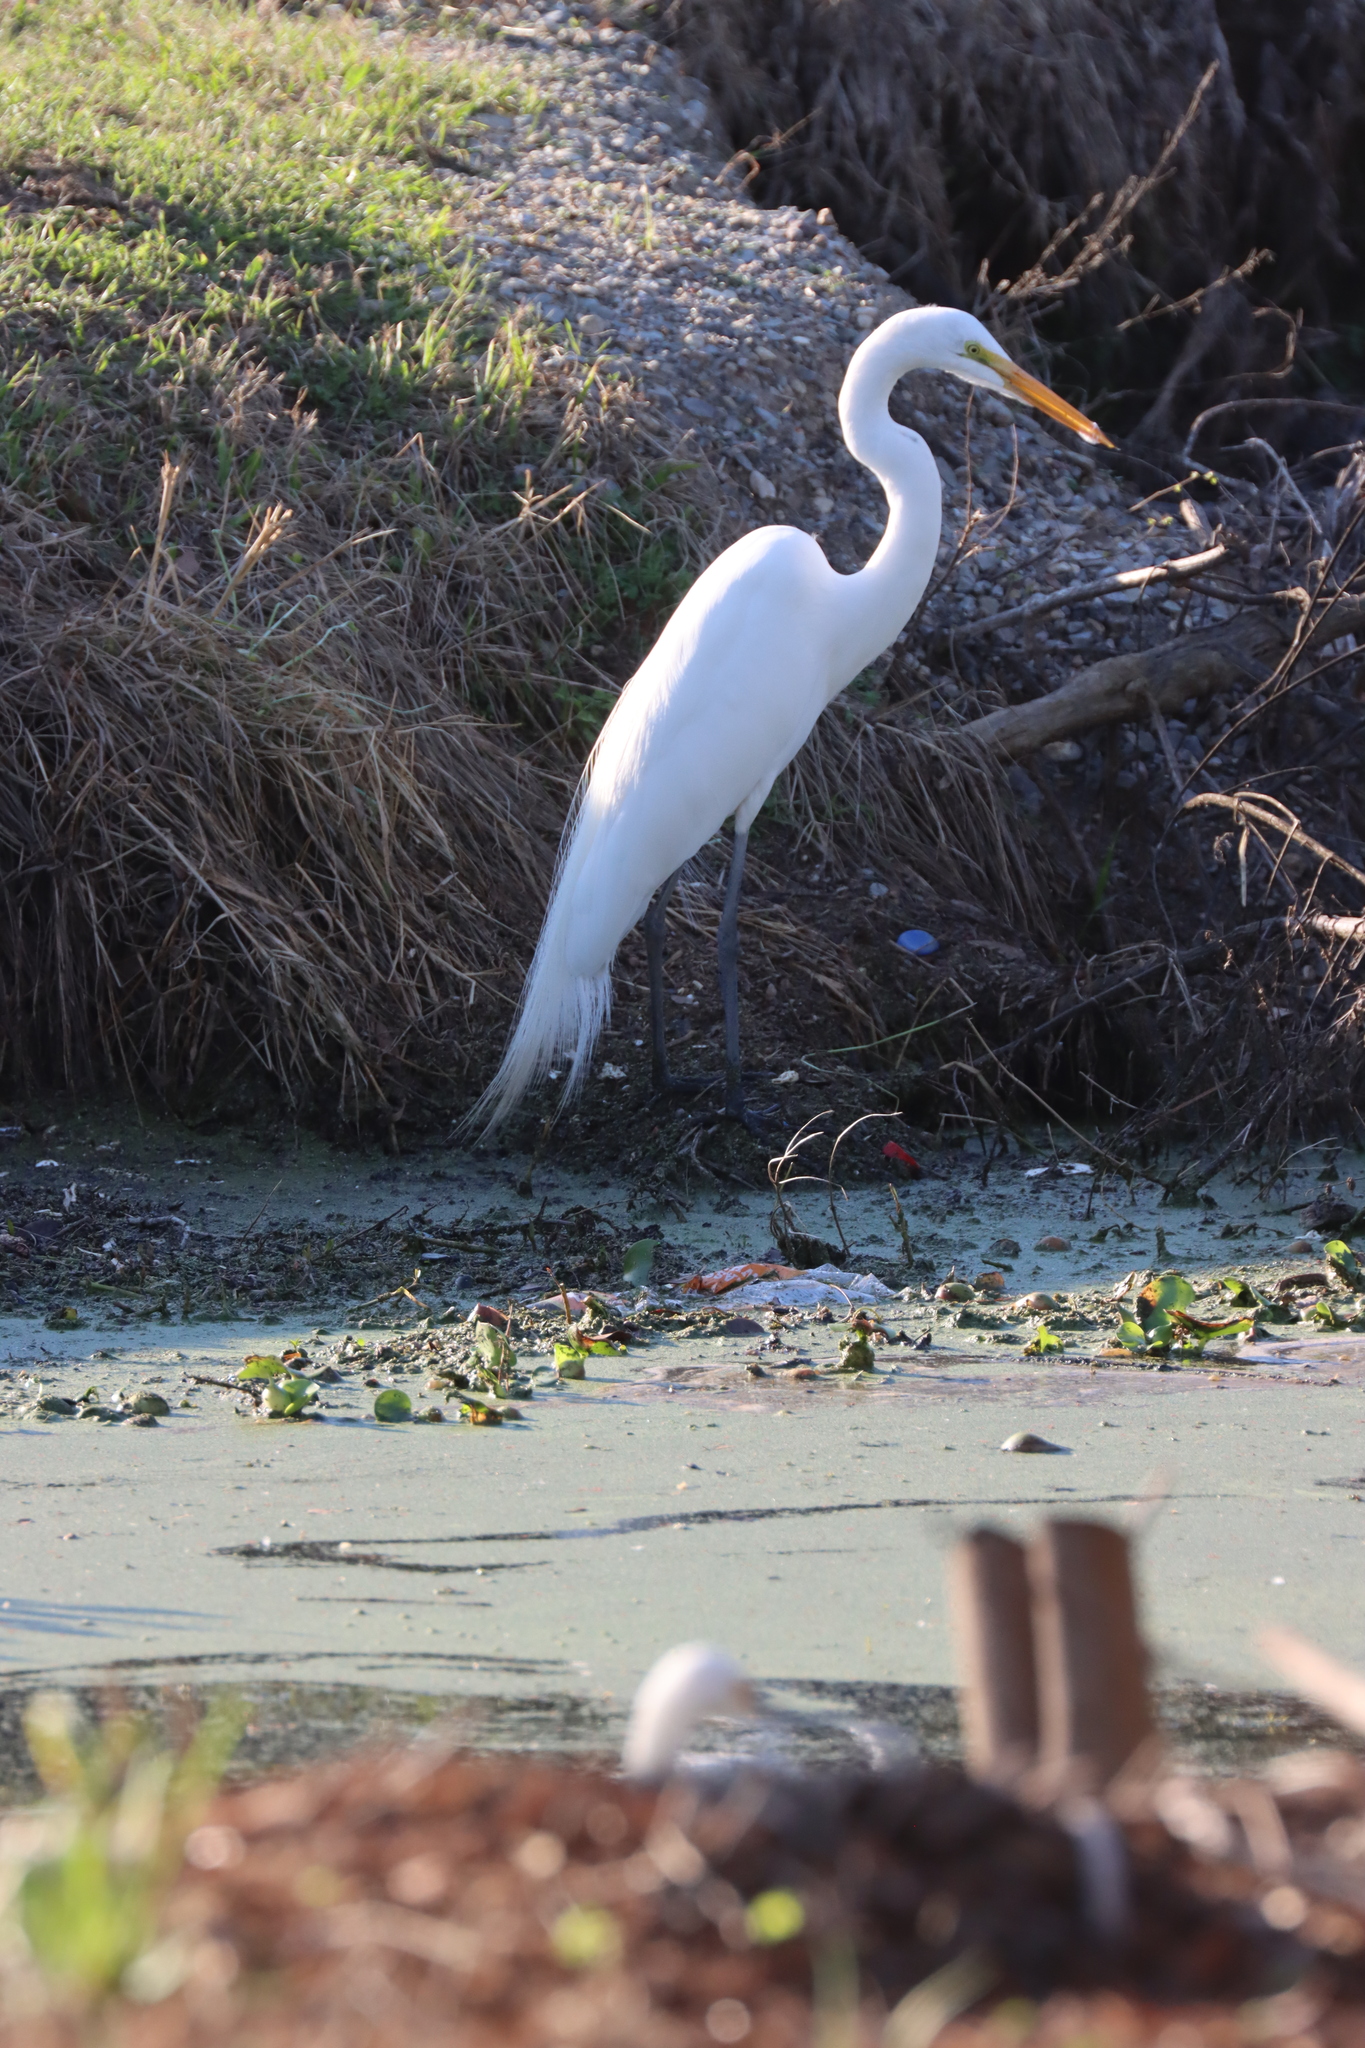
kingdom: Animalia
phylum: Chordata
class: Aves
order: Pelecaniformes
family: Ardeidae
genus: Ardea
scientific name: Ardea alba
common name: Great egret
